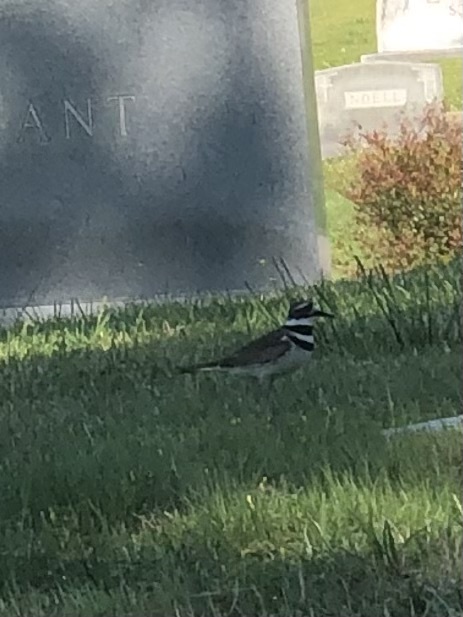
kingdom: Animalia
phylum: Chordata
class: Aves
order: Charadriiformes
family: Charadriidae
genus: Charadrius
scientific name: Charadrius vociferus
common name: Killdeer
